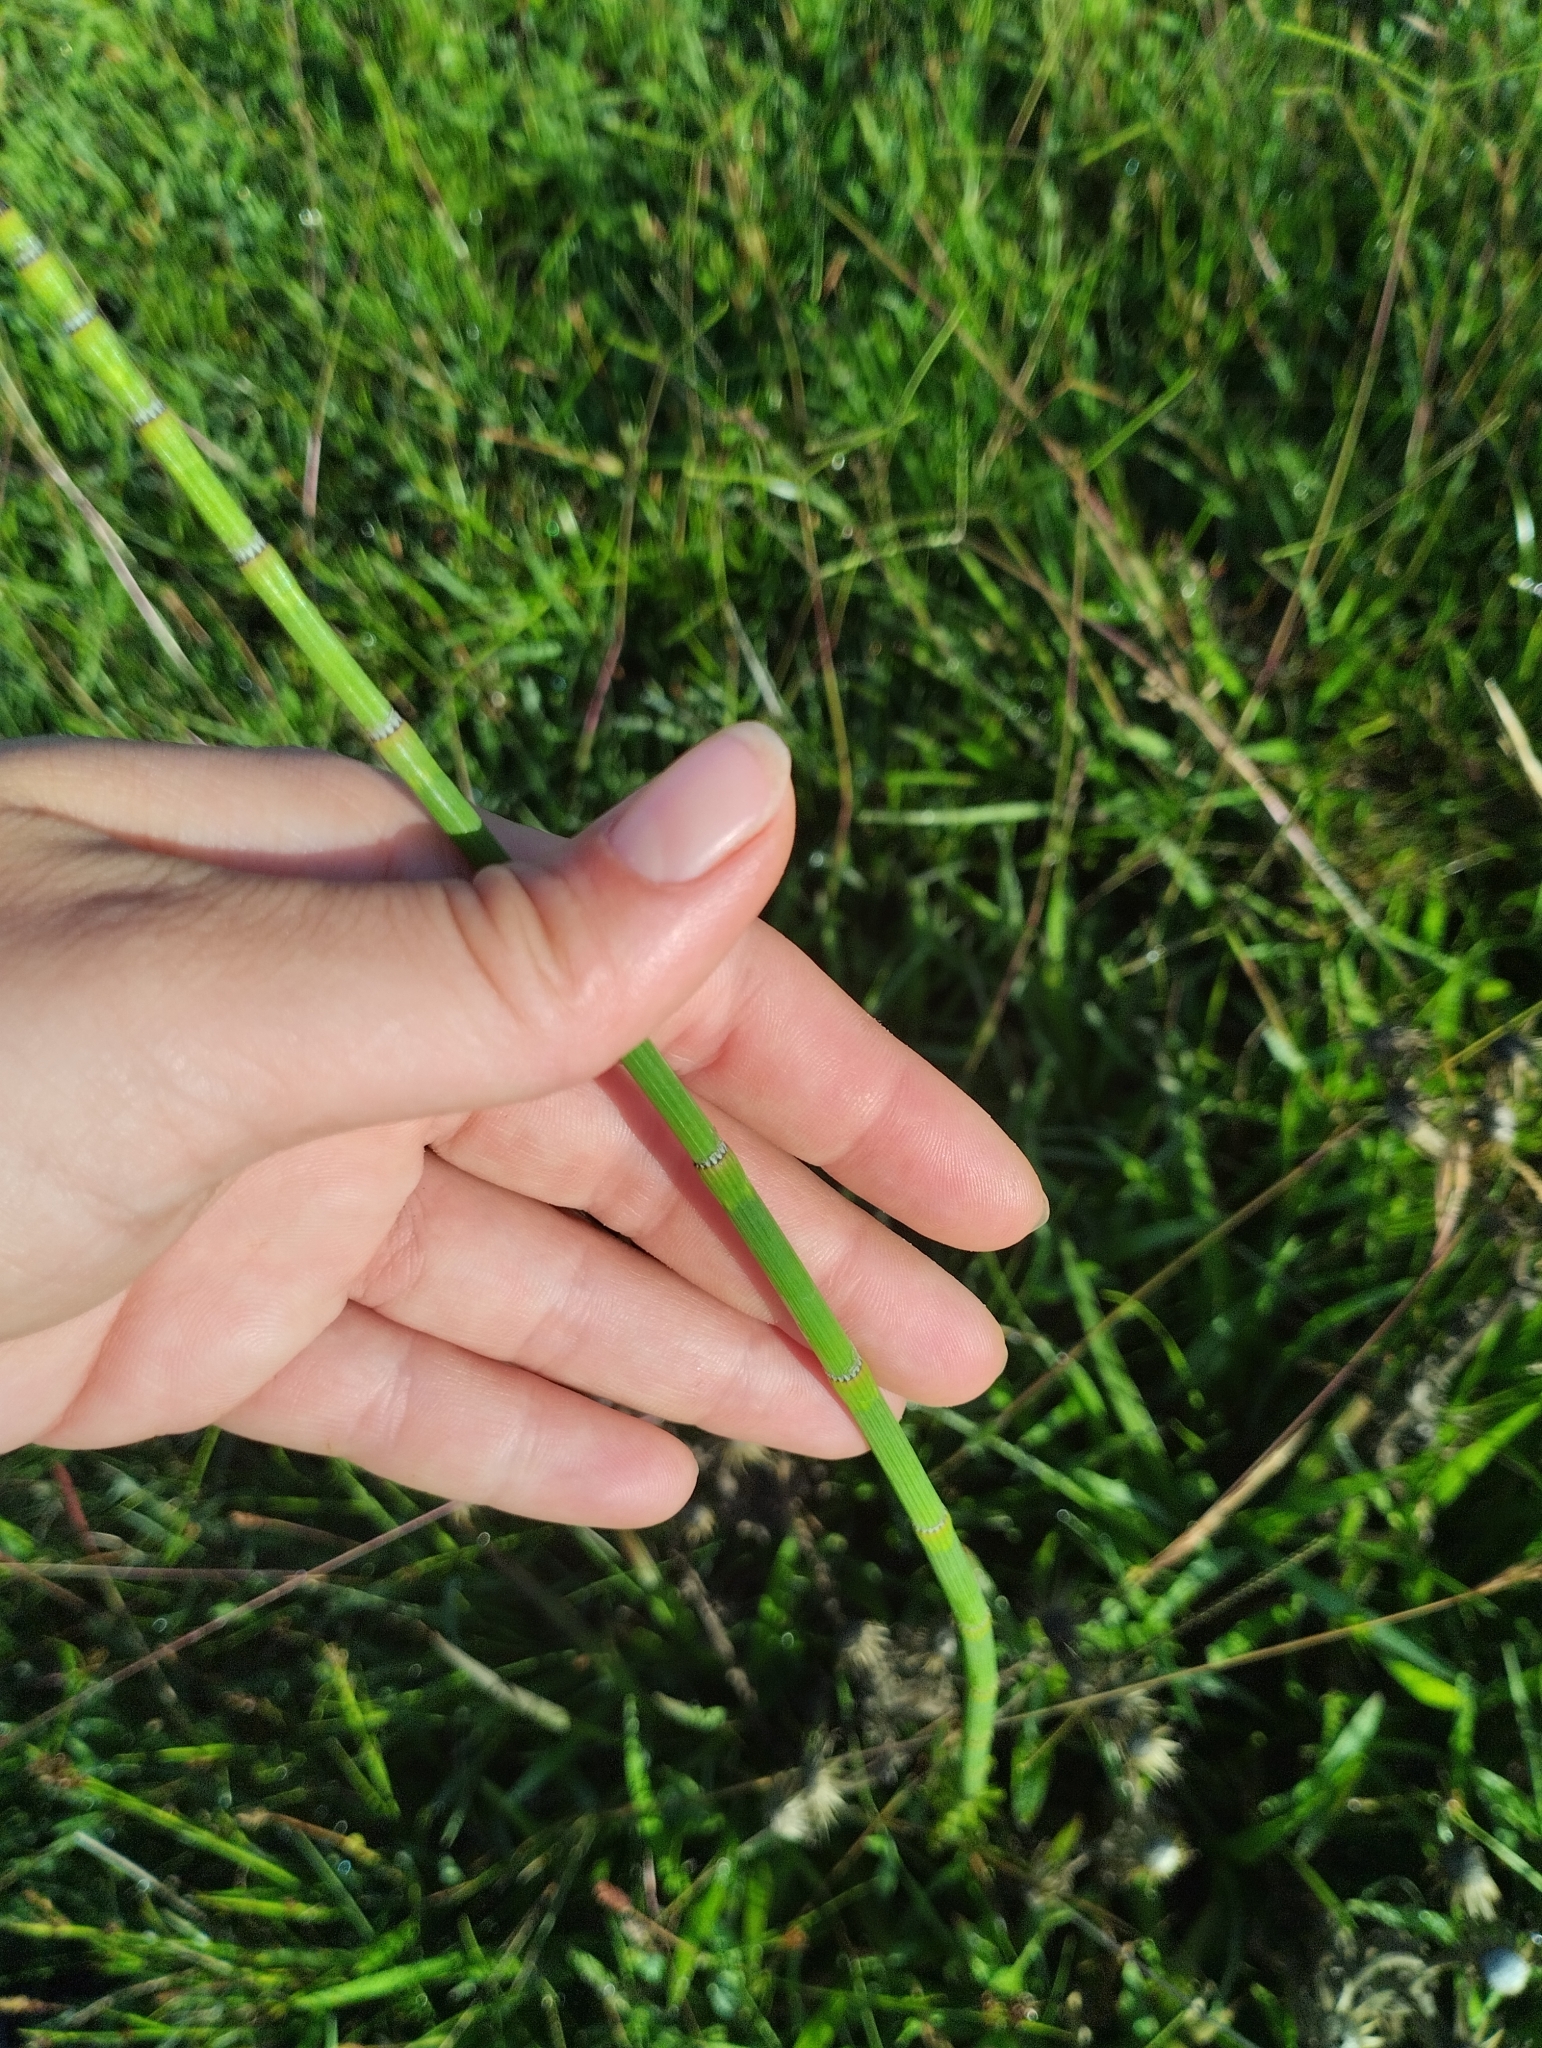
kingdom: Plantae
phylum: Tracheophyta
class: Polypodiopsida
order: Equisetales
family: Equisetaceae
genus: Equisetum
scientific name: Equisetum giganteum
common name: Giant horsetail
